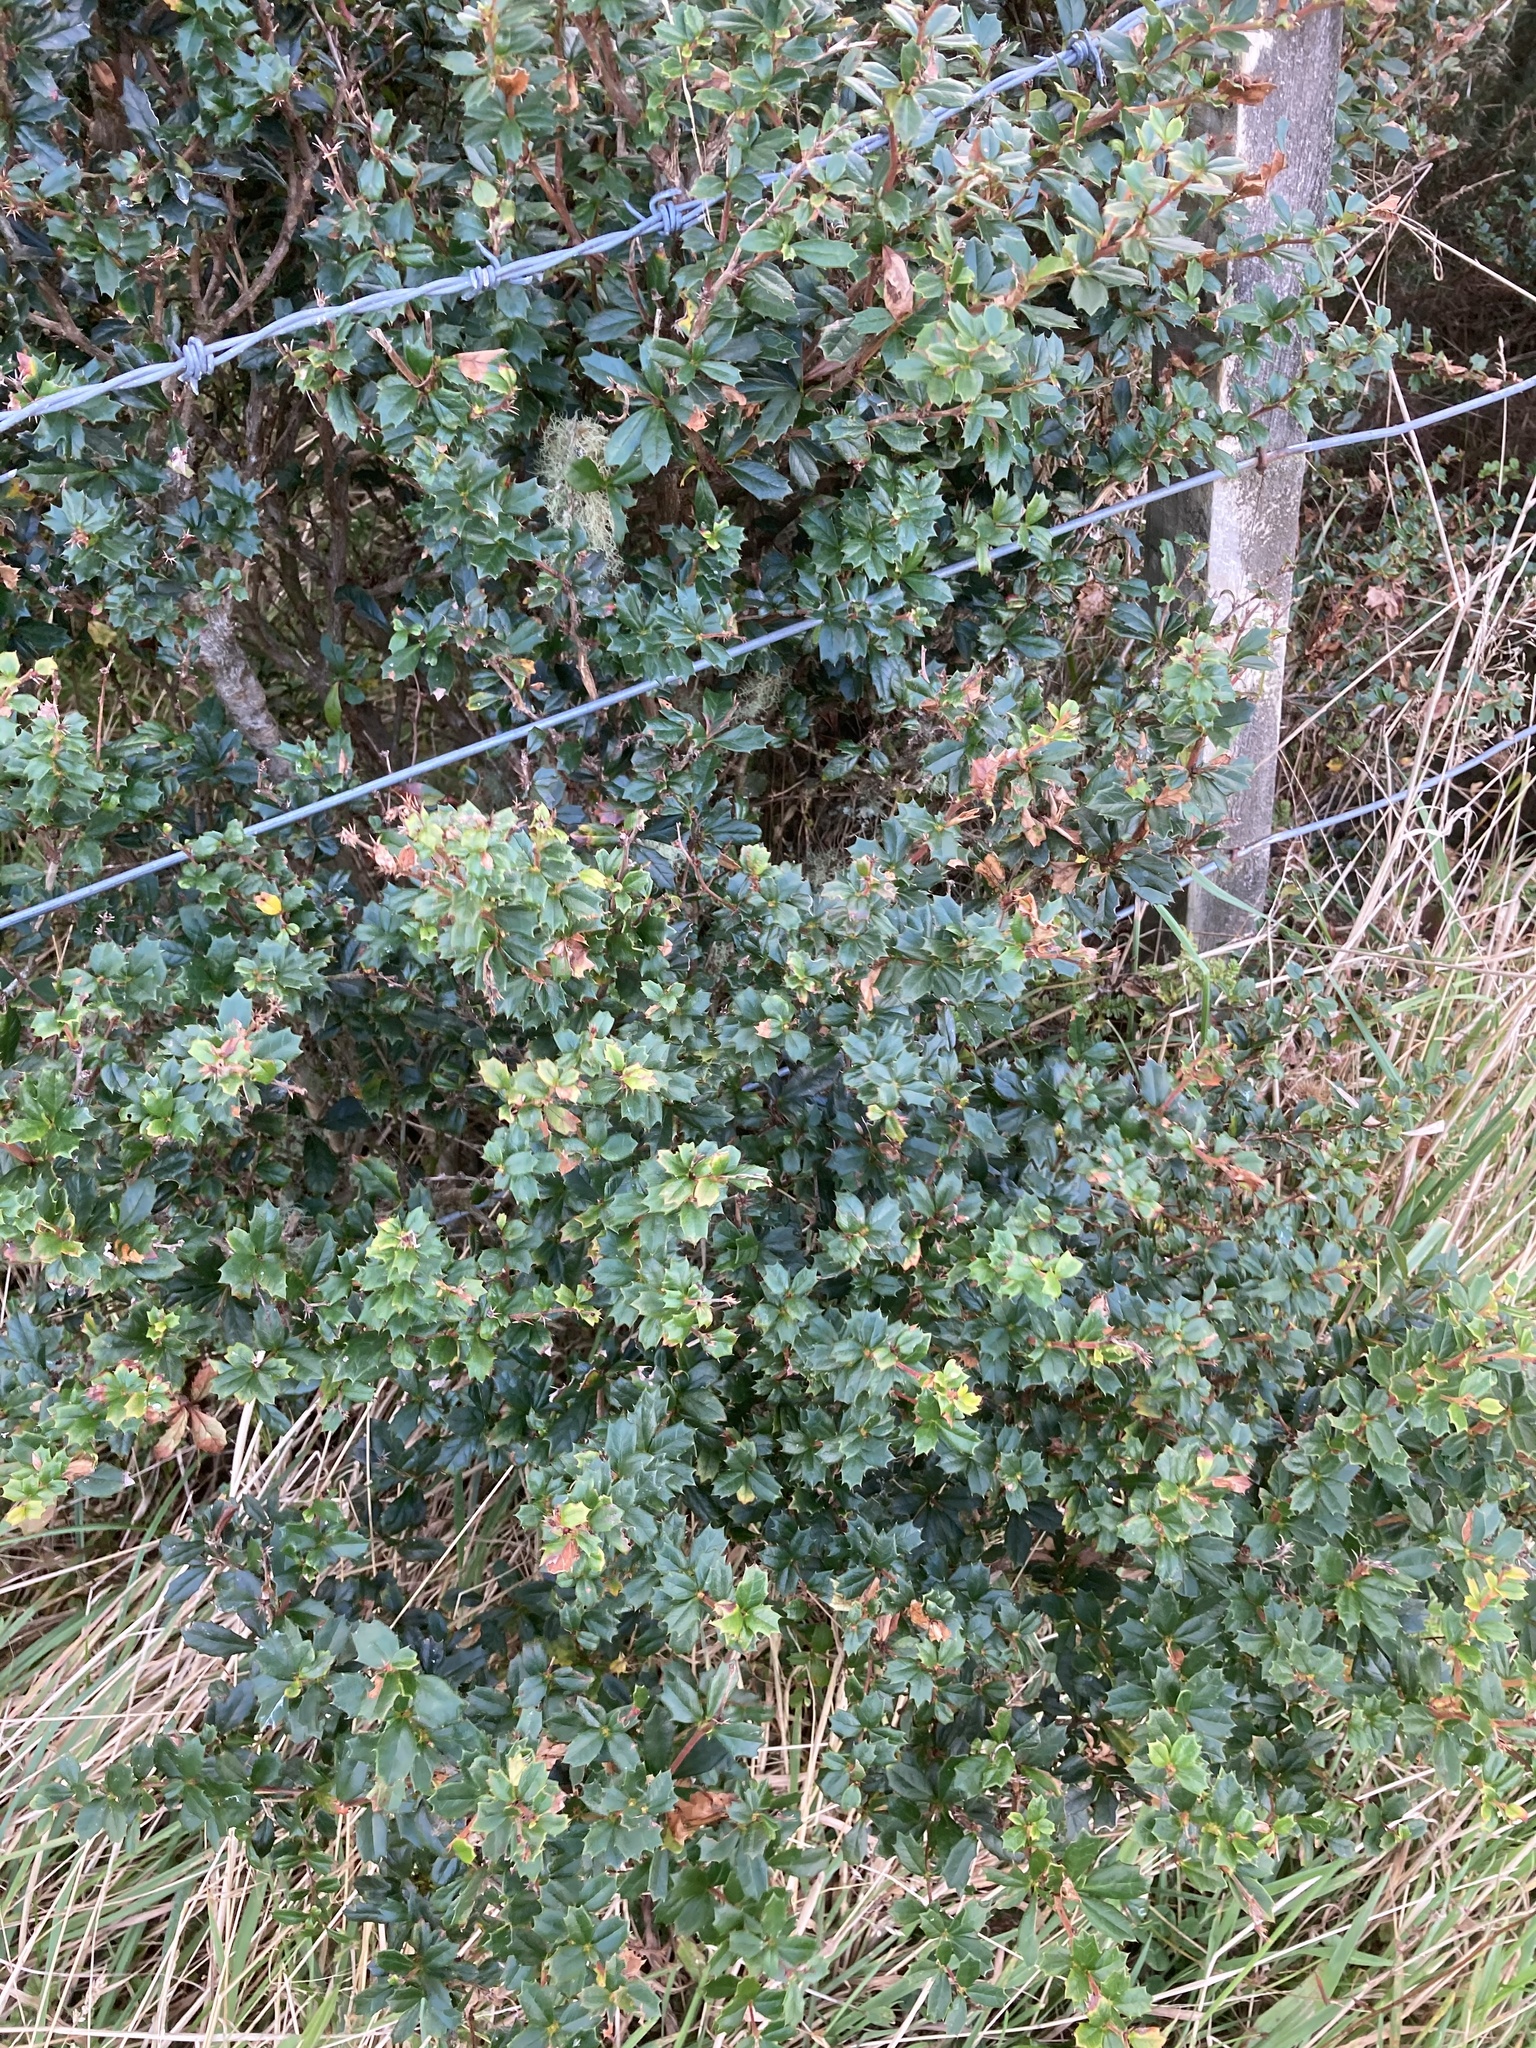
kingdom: Plantae
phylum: Tracheophyta
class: Magnoliopsida
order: Ranunculales
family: Berberidaceae
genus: Berberis
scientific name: Berberis darwinii
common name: Darwin's barberry
